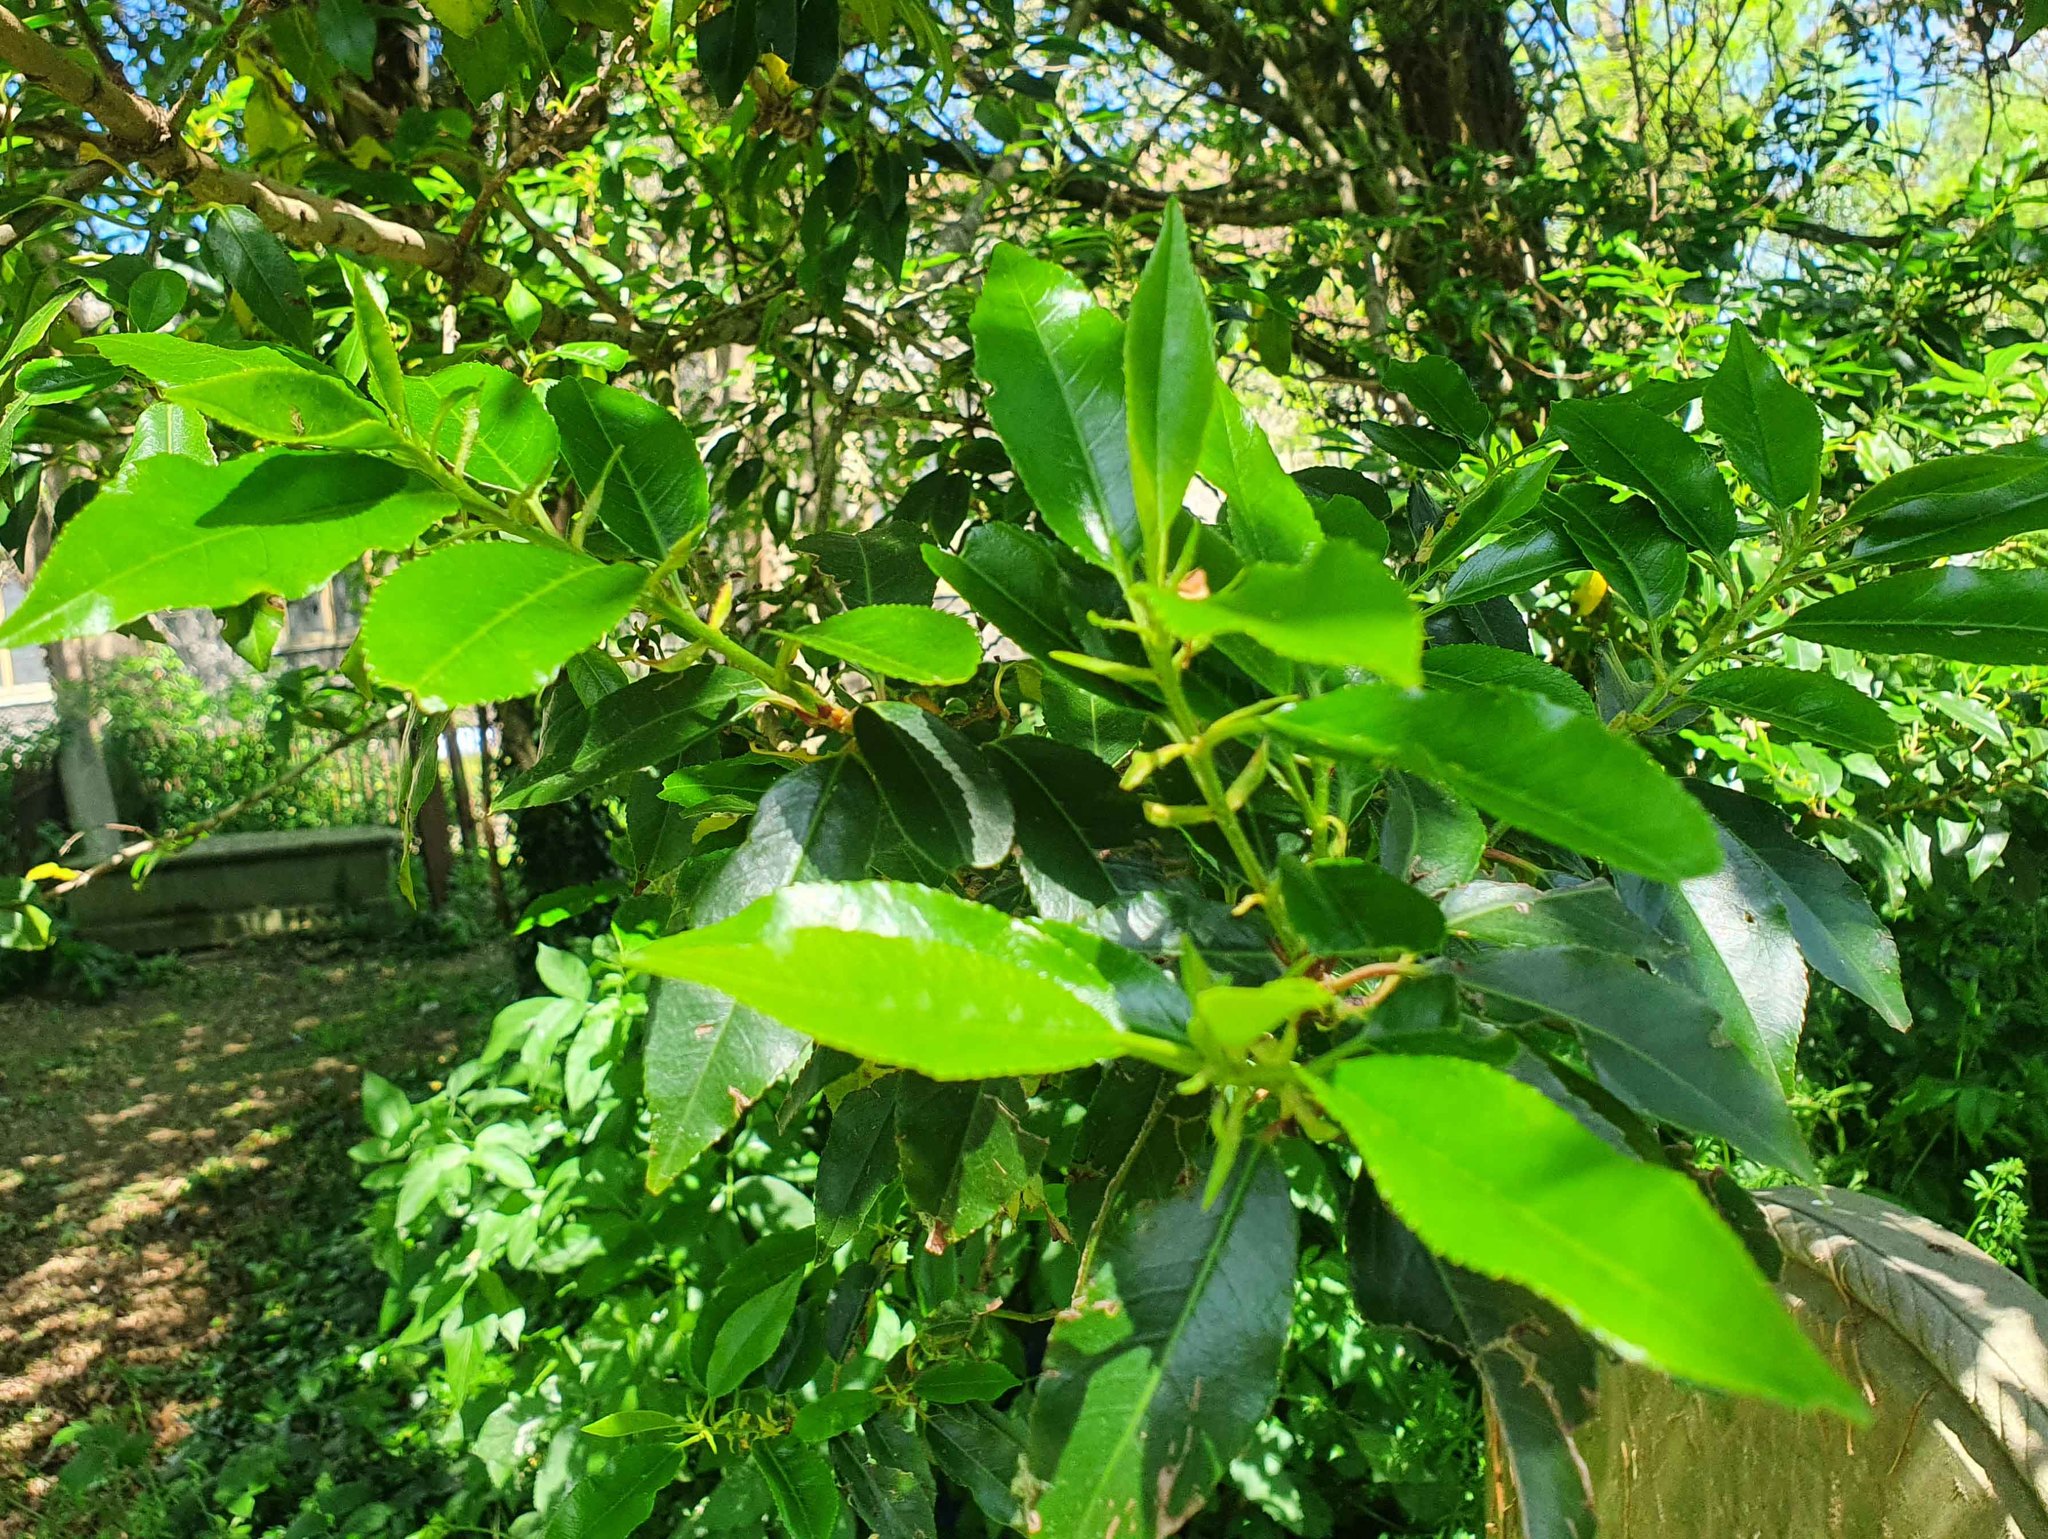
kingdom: Plantae
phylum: Tracheophyta
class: Magnoliopsida
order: Rosales
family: Rosaceae
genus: Prunus
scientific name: Prunus laurocerasus
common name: Cherry laurel
